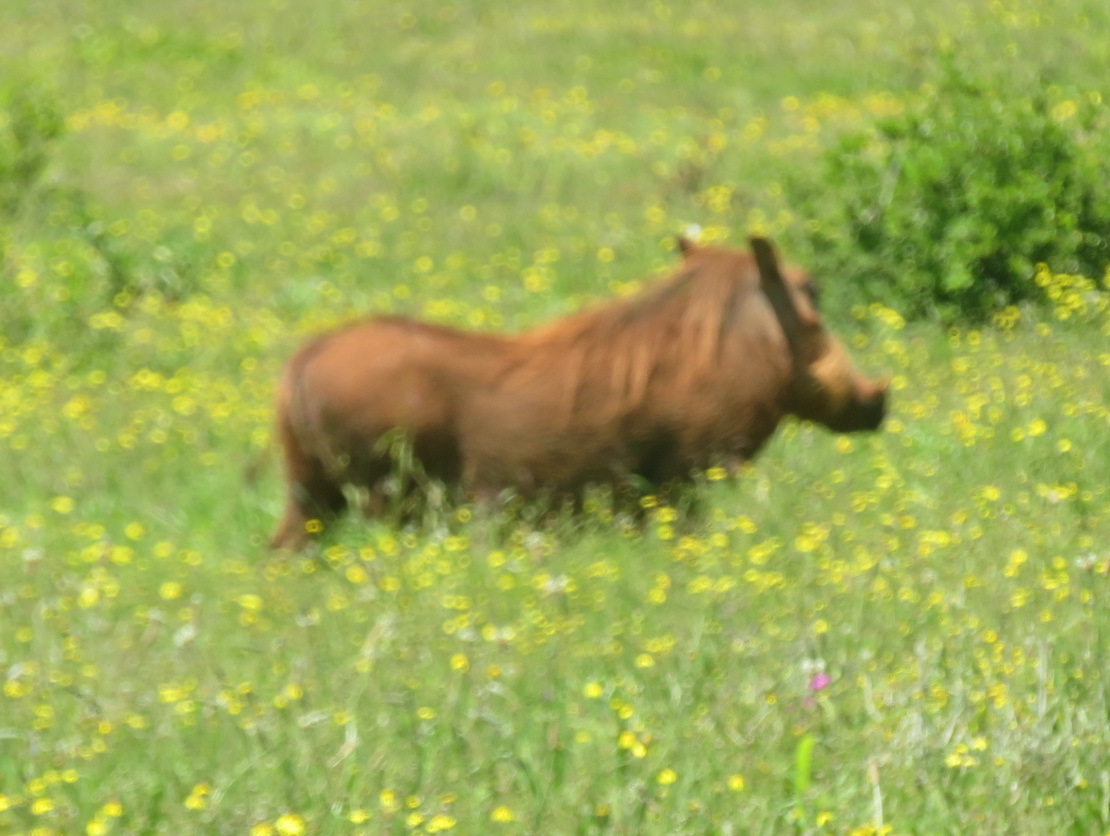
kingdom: Animalia
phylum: Chordata
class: Mammalia
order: Artiodactyla
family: Suidae
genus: Phacochoerus
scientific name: Phacochoerus africanus
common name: Common warthog
